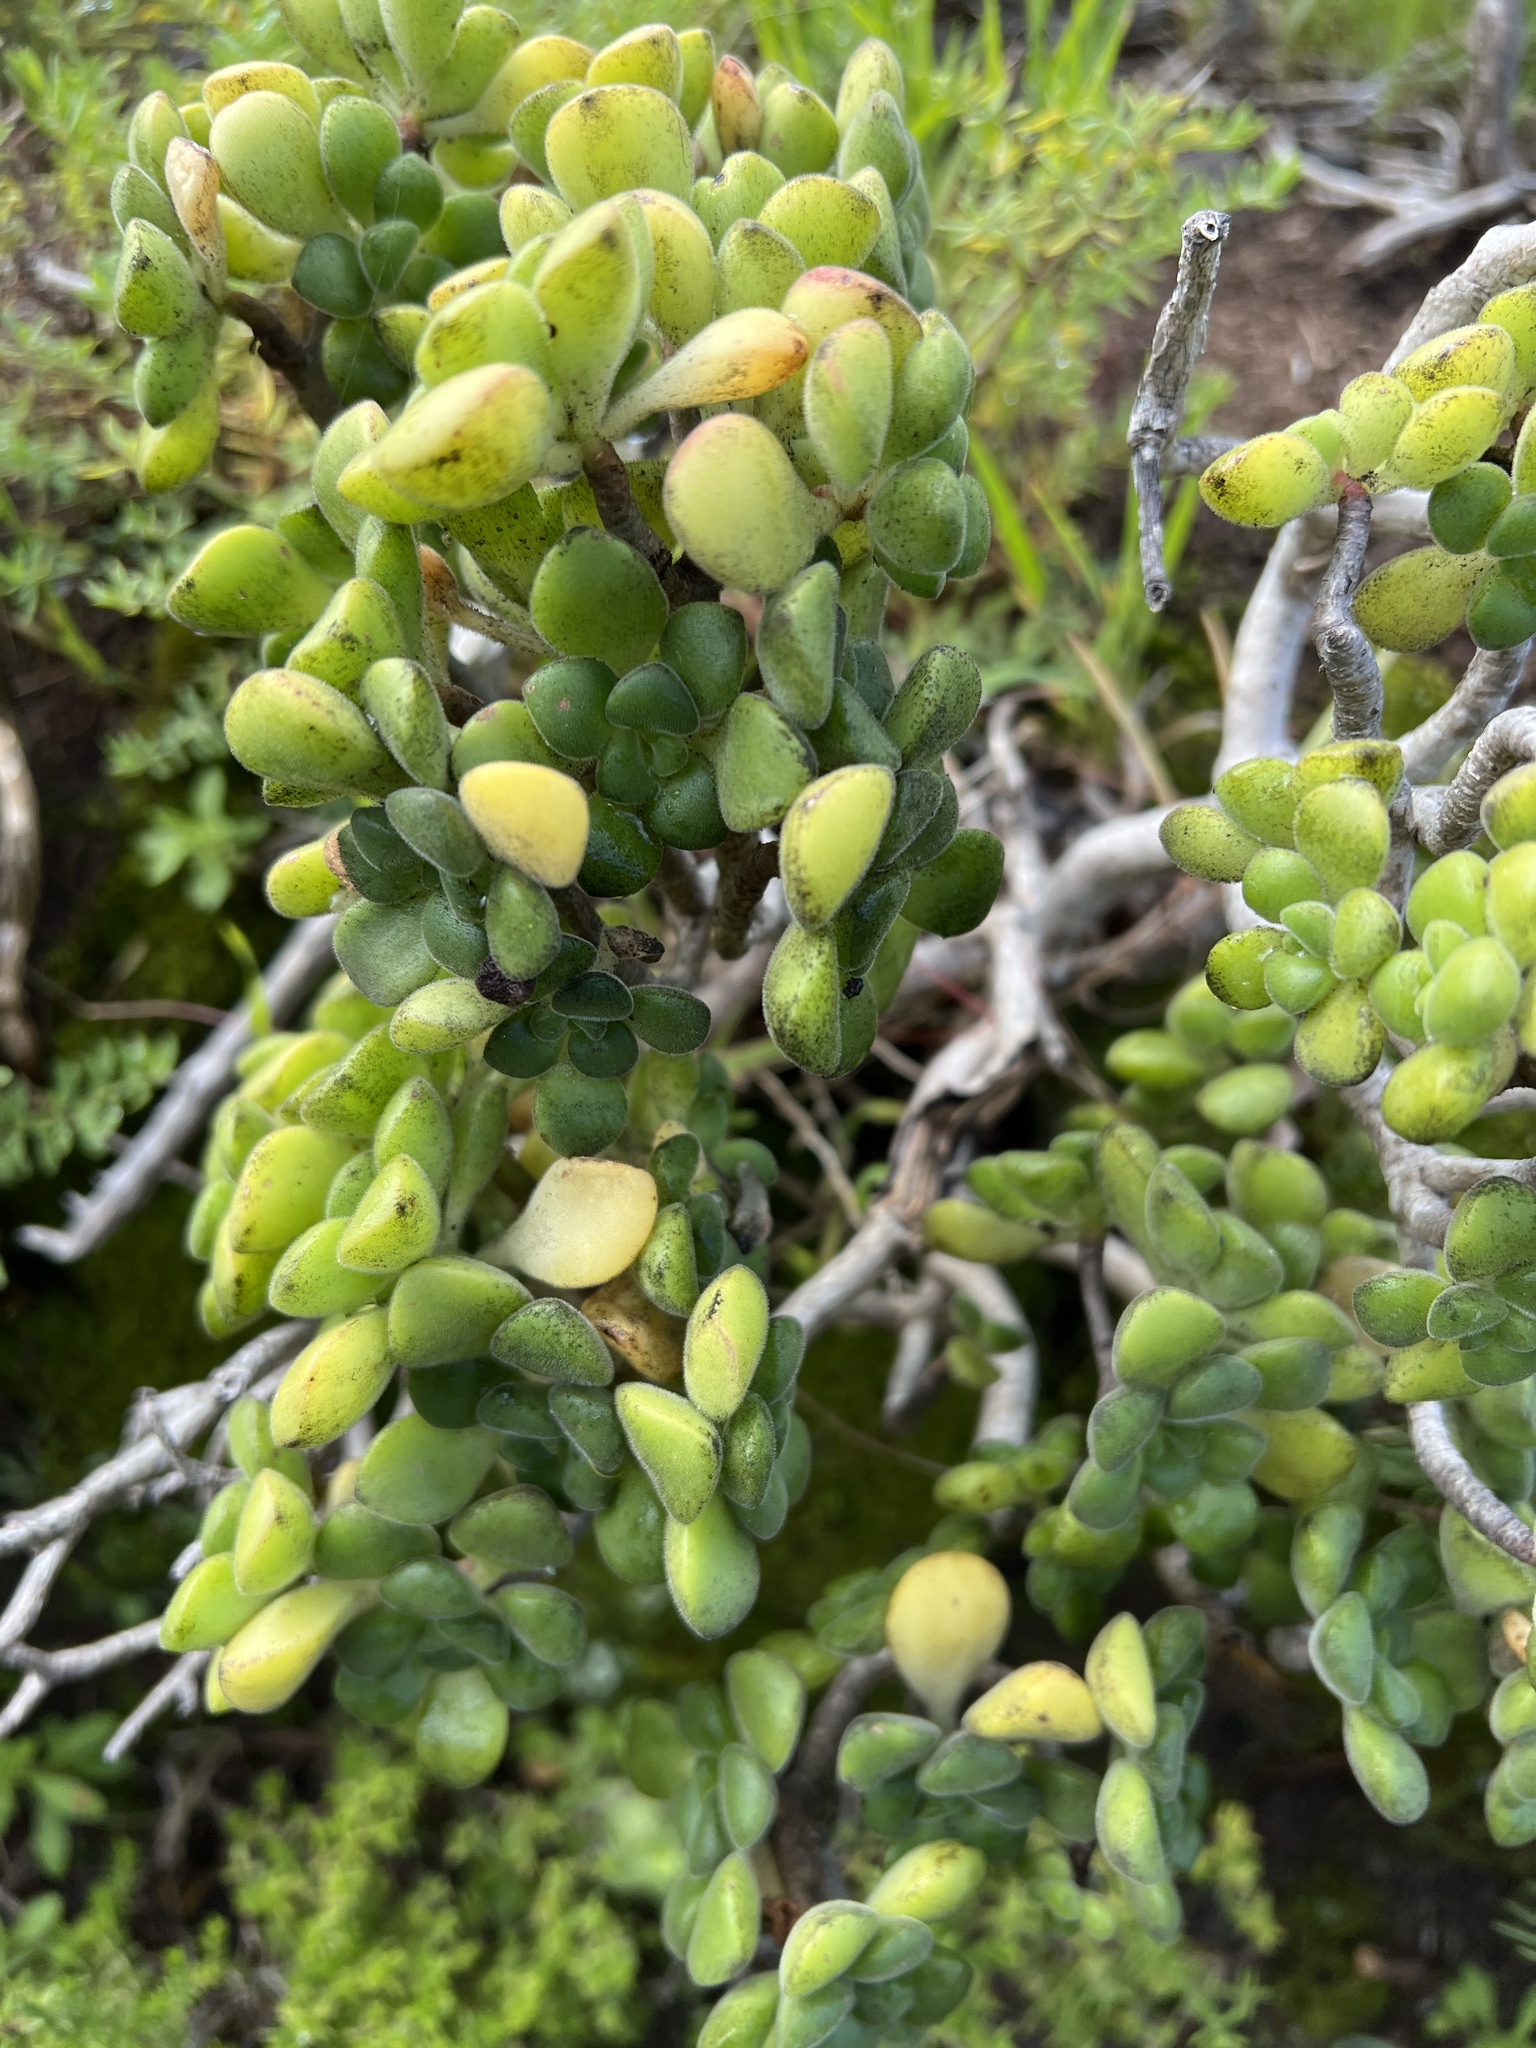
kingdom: Plantae
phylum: Tracheophyta
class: Magnoliopsida
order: Saxifragales
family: Crassulaceae
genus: Aeonium
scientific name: Aeonium lindleyi
